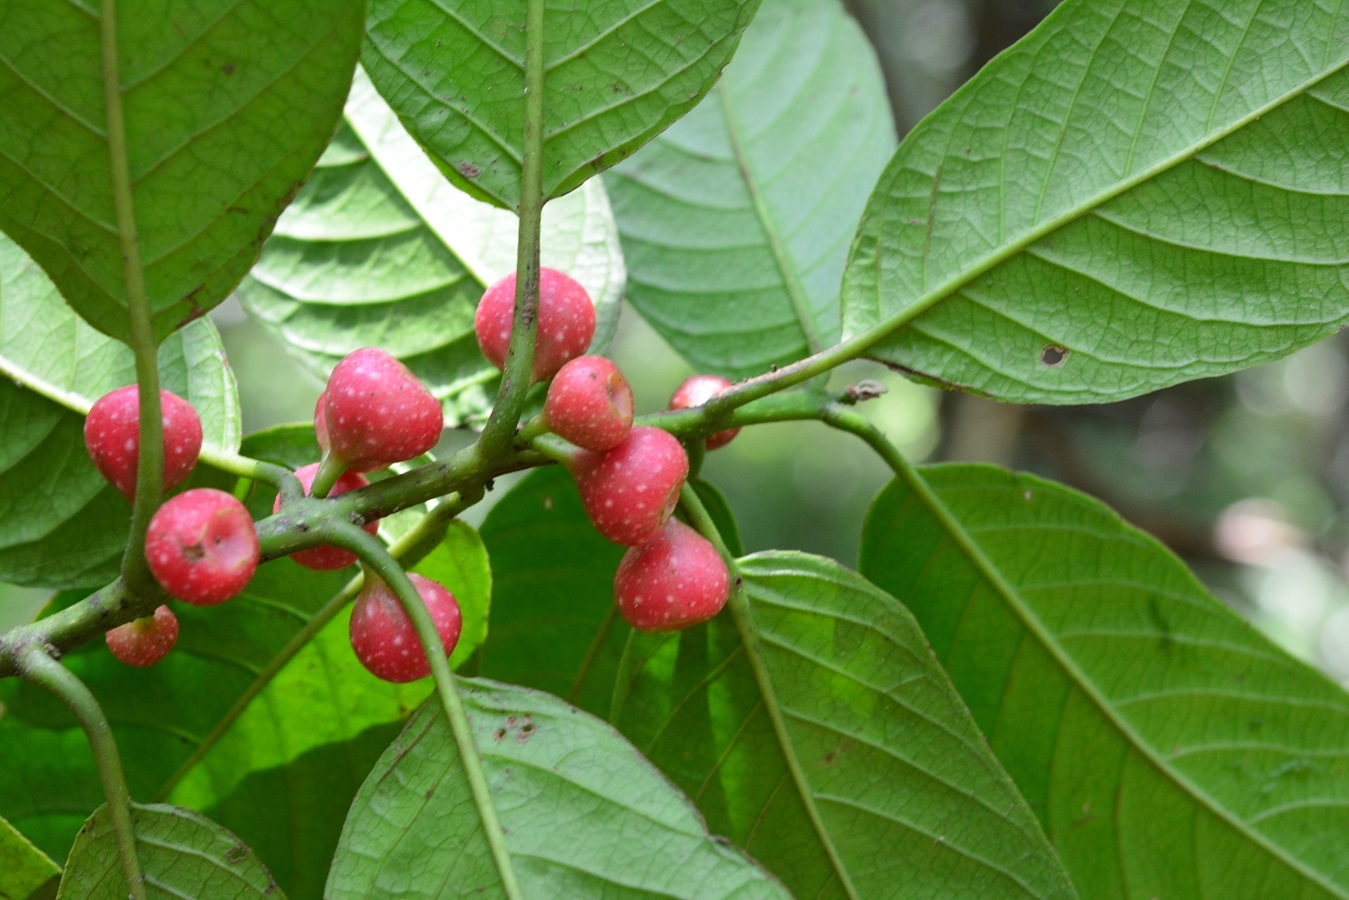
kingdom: Plantae
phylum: Tracheophyta
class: Magnoliopsida
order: Laurales
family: Siparunaceae
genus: Siparuna
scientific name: Siparuna thecaphora
